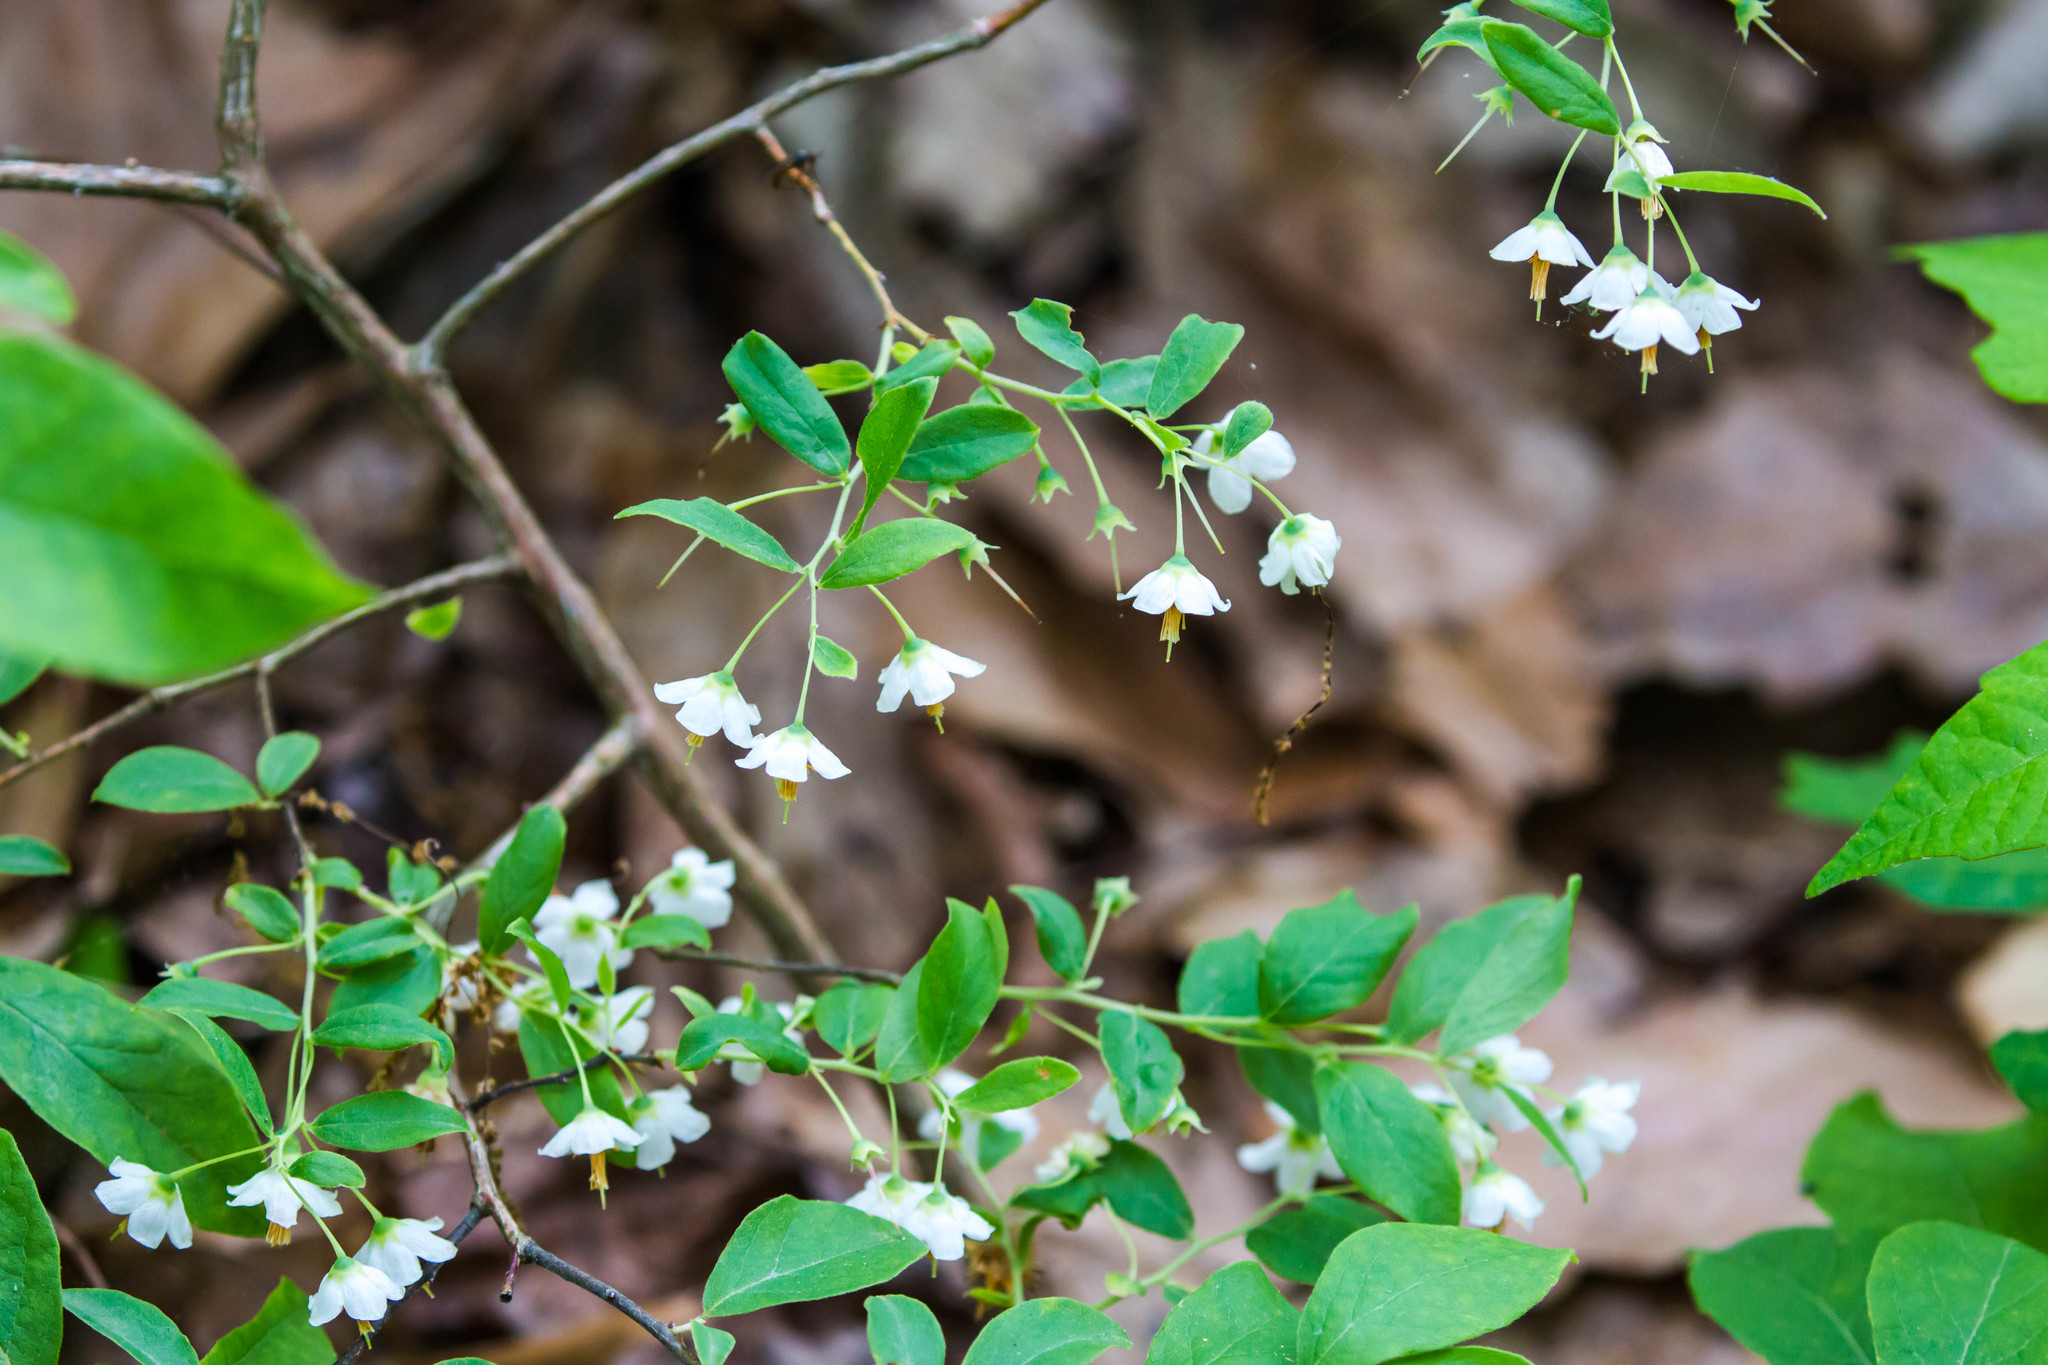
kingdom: Plantae
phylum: Tracheophyta
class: Magnoliopsida
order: Ericales
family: Ericaceae
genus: Vaccinium
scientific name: Vaccinium stamineum
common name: Deerberry
